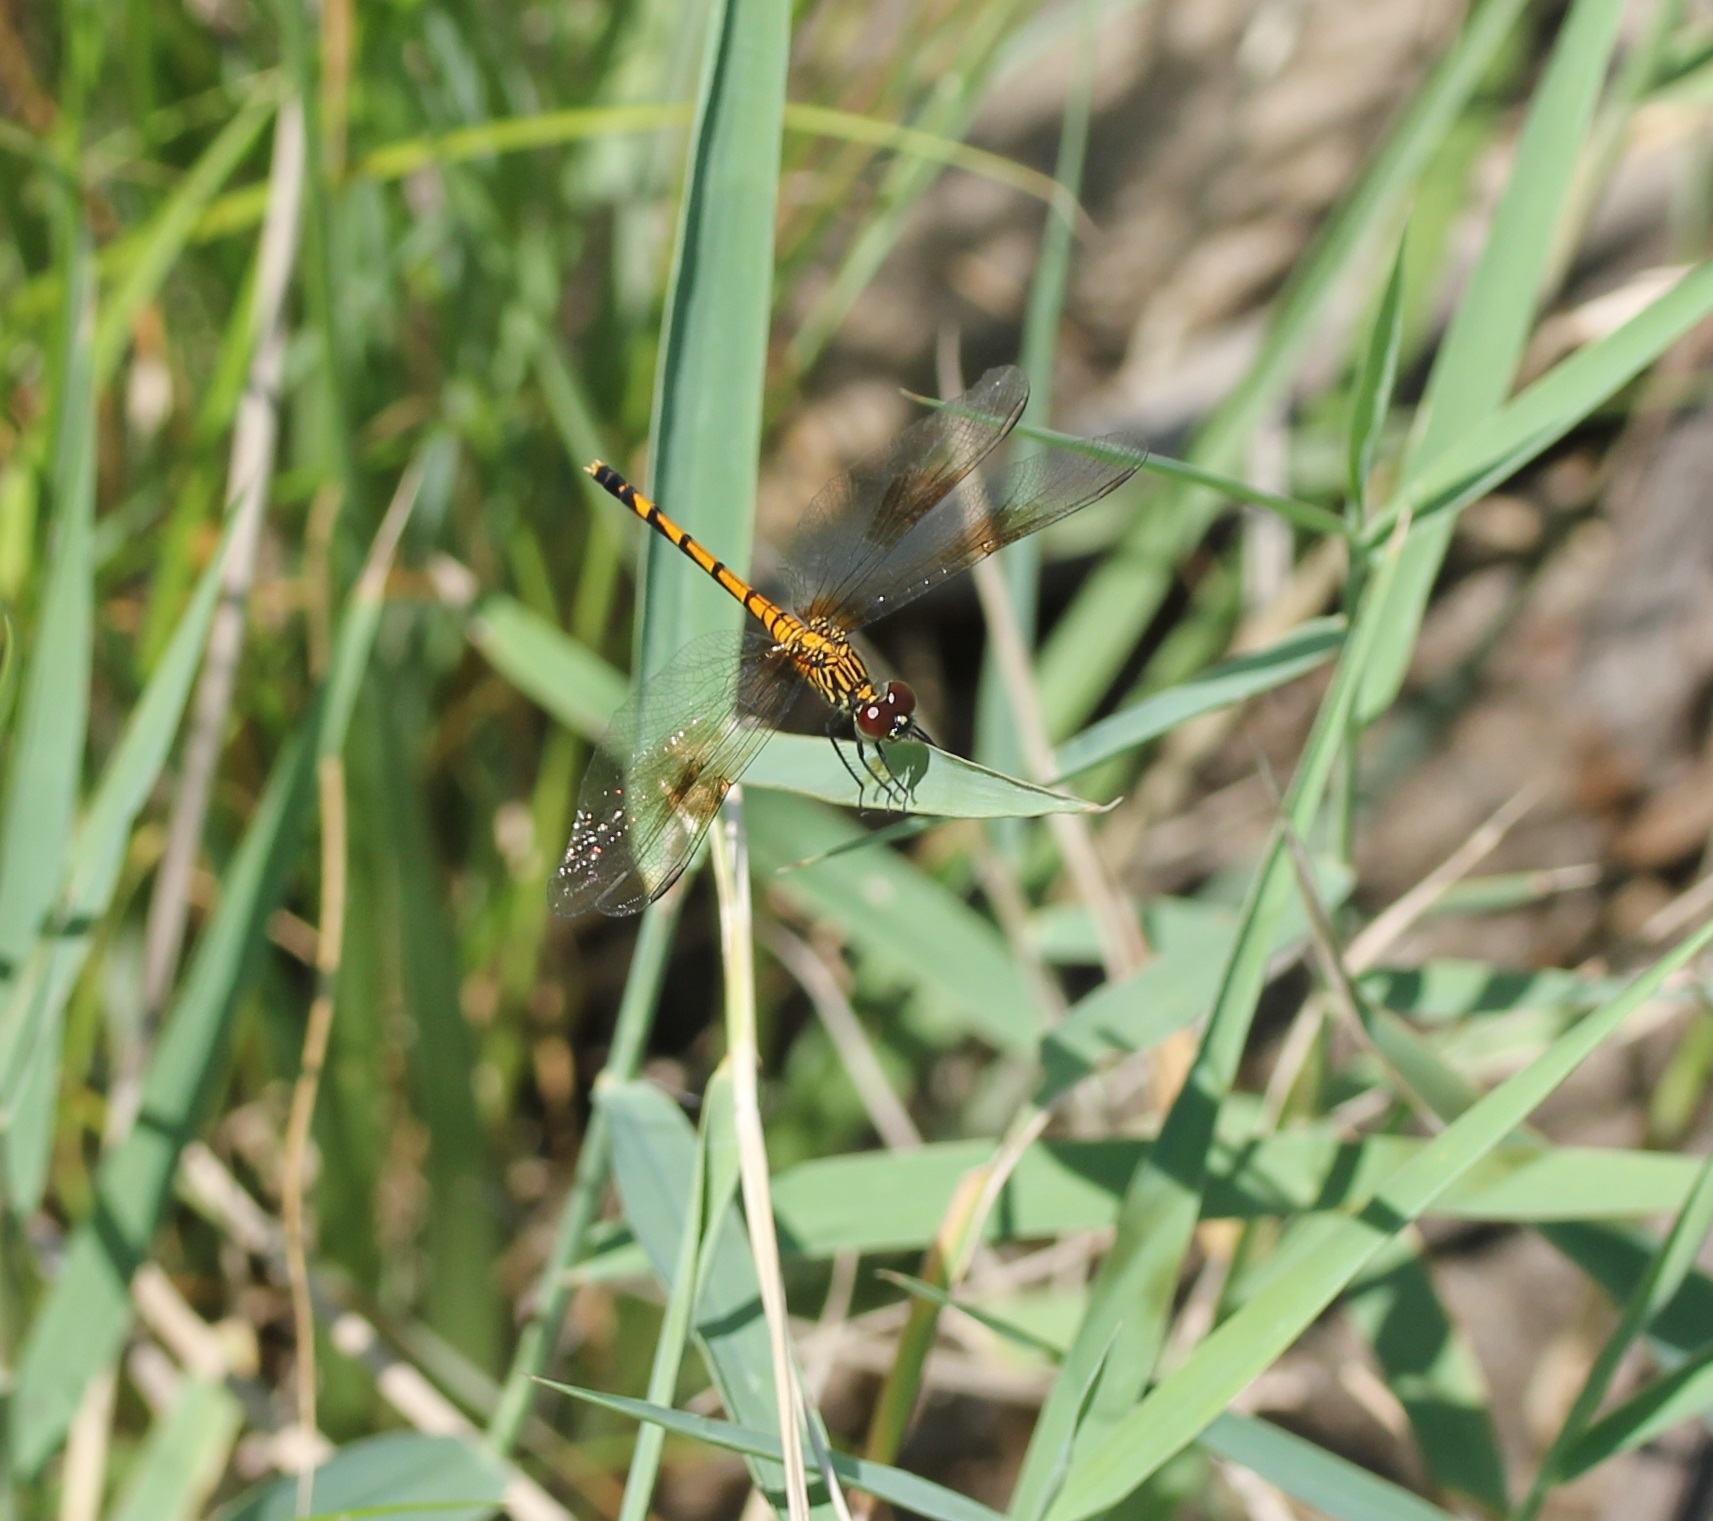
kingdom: Animalia
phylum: Arthropoda
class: Insecta
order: Odonata
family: Libellulidae
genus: Erythrodiplax
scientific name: Erythrodiplax berenice
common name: Seaside dragonlet
